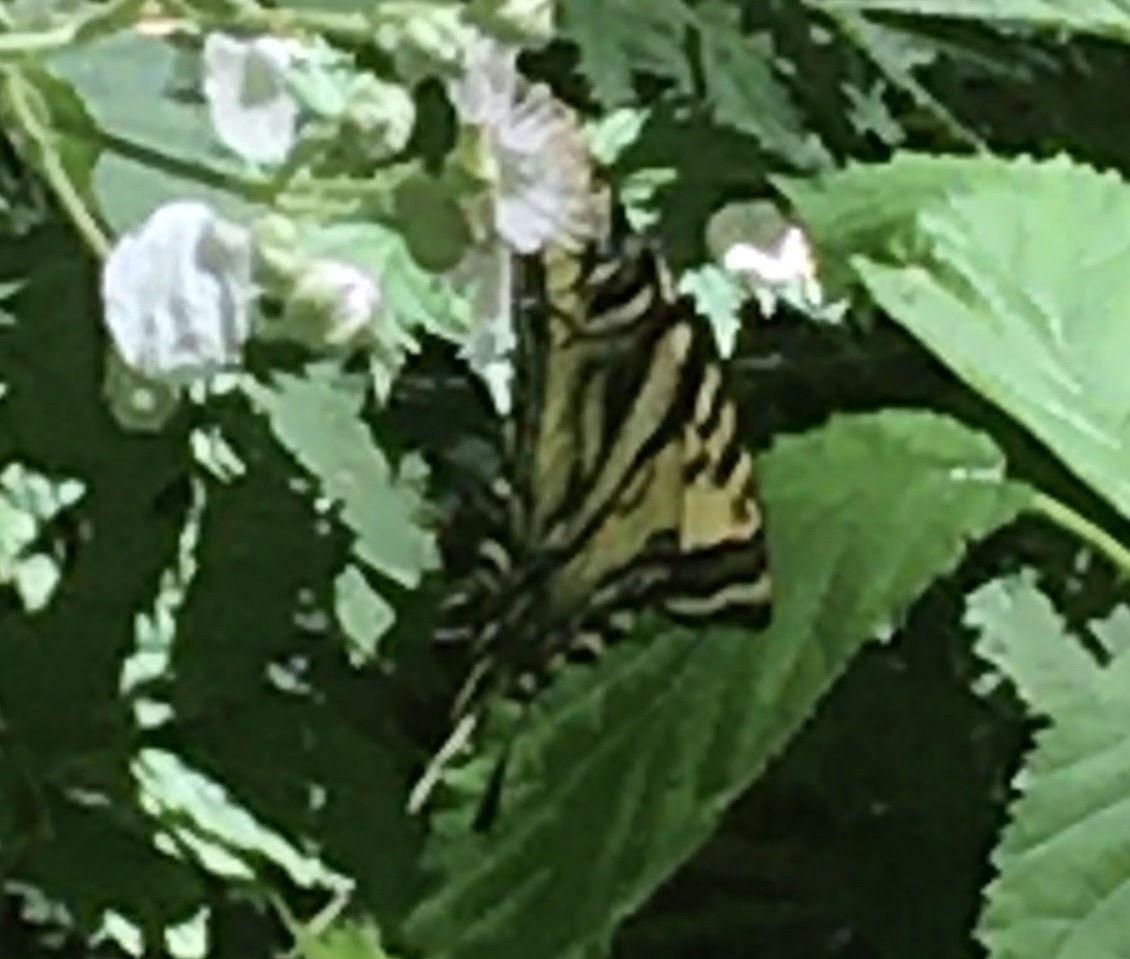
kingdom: Animalia
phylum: Arthropoda
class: Insecta
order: Lepidoptera
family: Papilionidae
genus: Papilio
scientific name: Papilio rutulus
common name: Western tiger swallowtail
